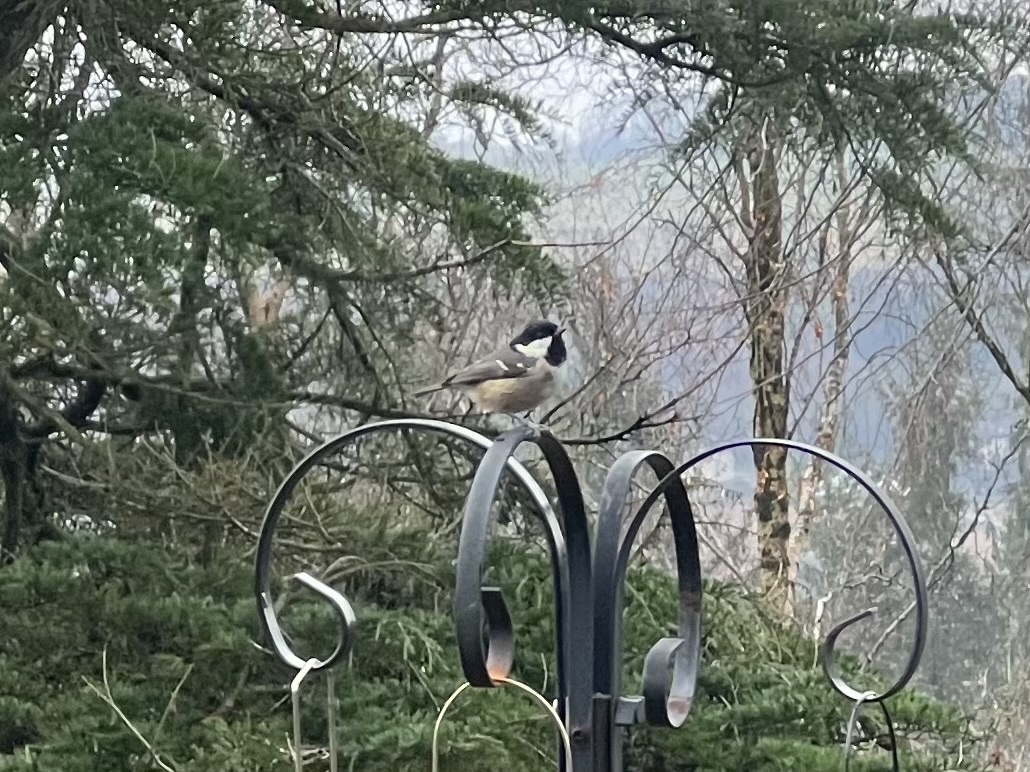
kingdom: Animalia
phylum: Chordata
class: Aves
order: Passeriformes
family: Paridae
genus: Periparus
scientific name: Periparus ater
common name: Coal tit
